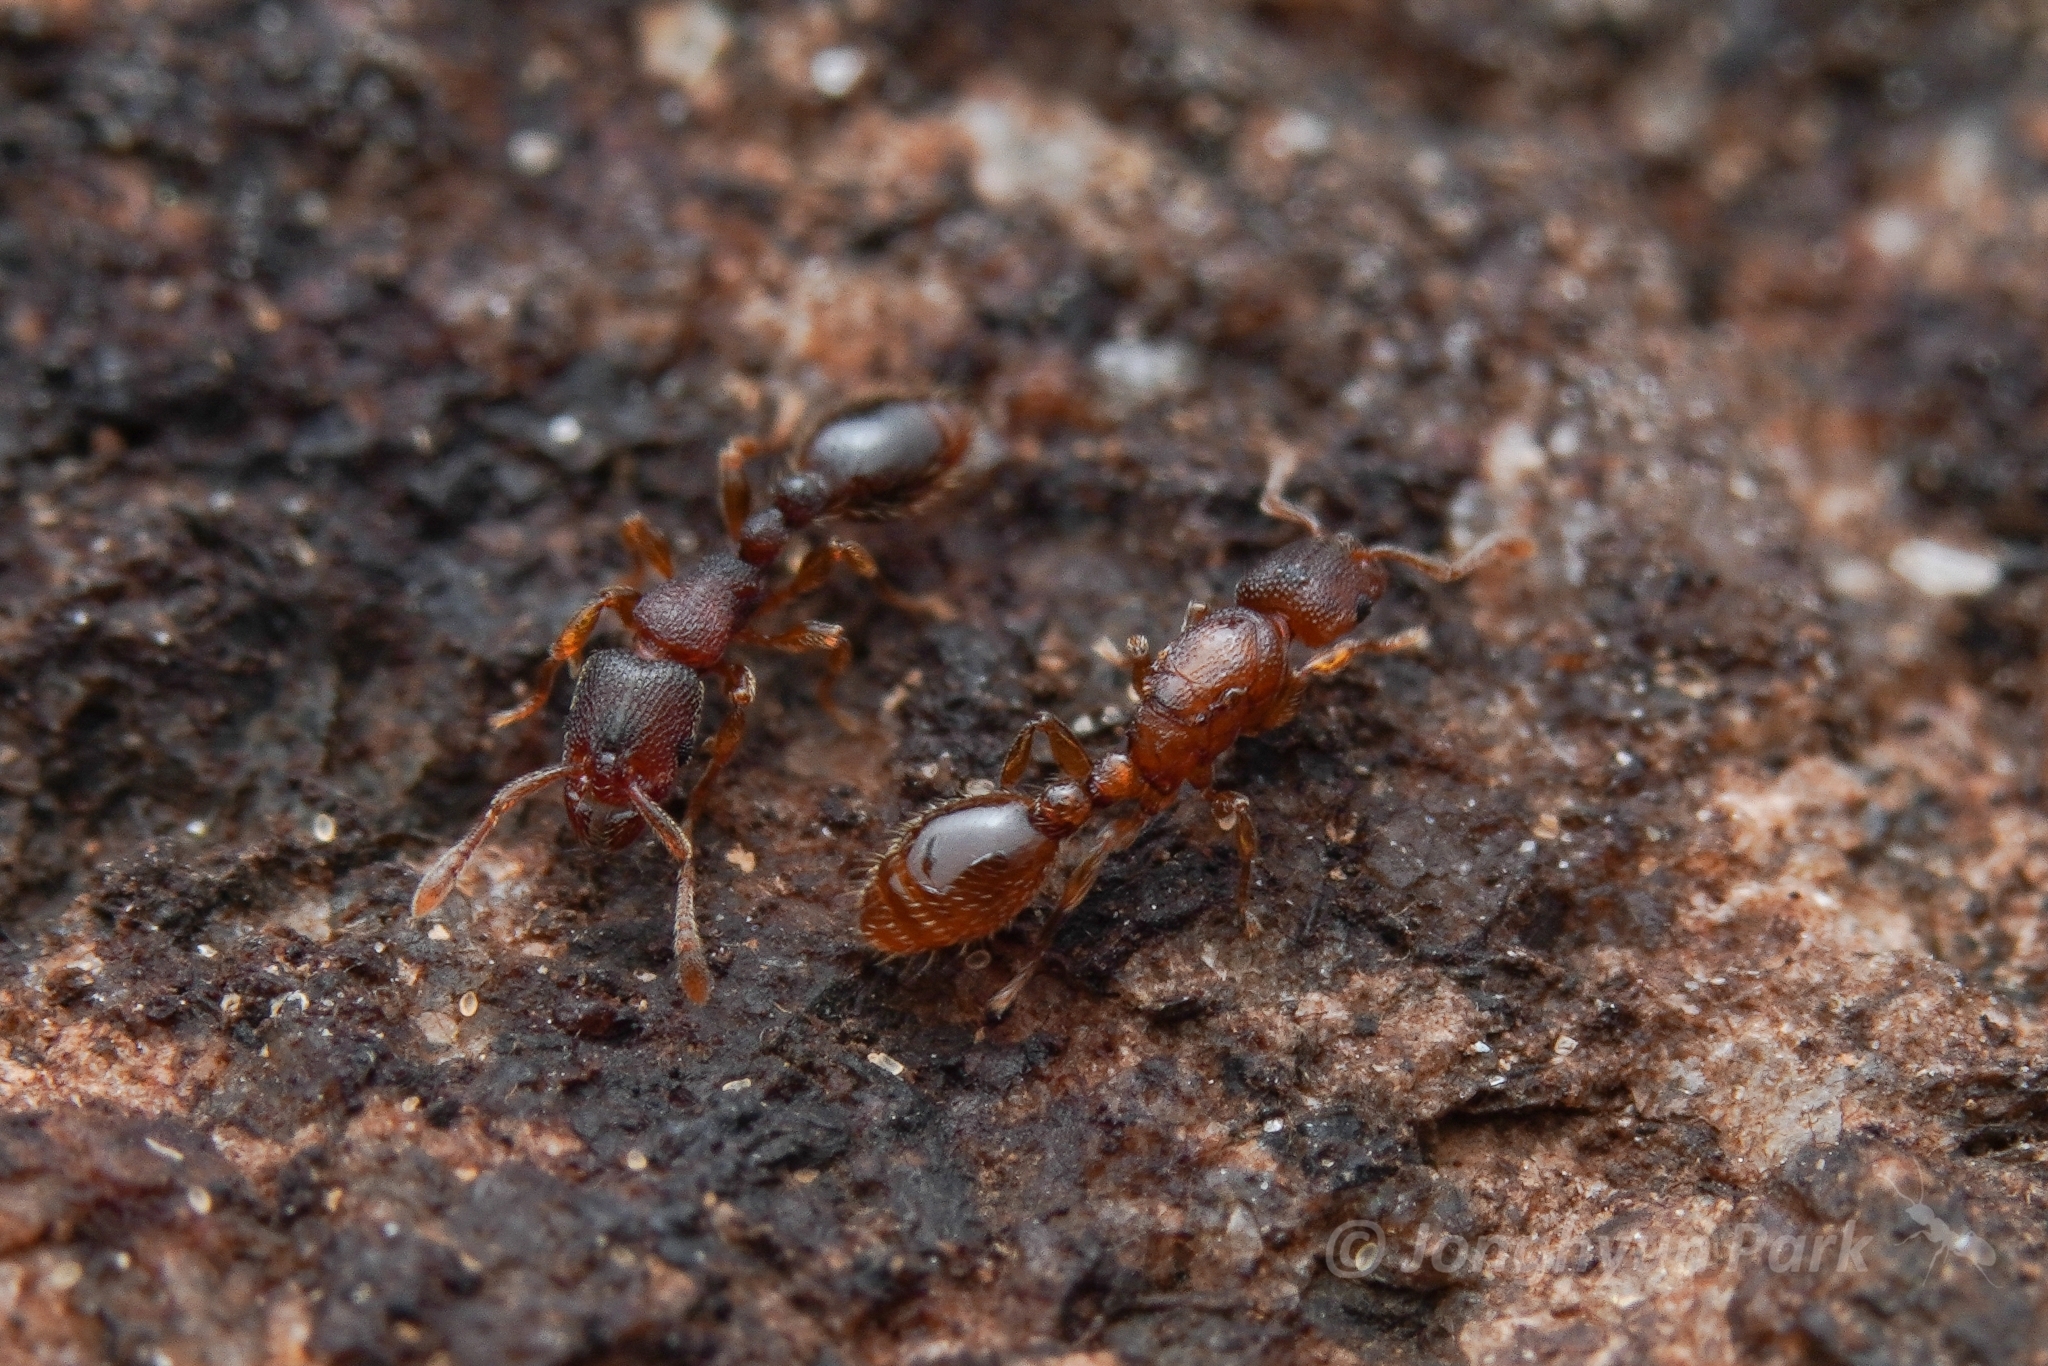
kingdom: Animalia
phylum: Arthropoda
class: Insecta
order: Hymenoptera
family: Formicidae
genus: Vollenhovia
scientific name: Vollenhovia nipponica
